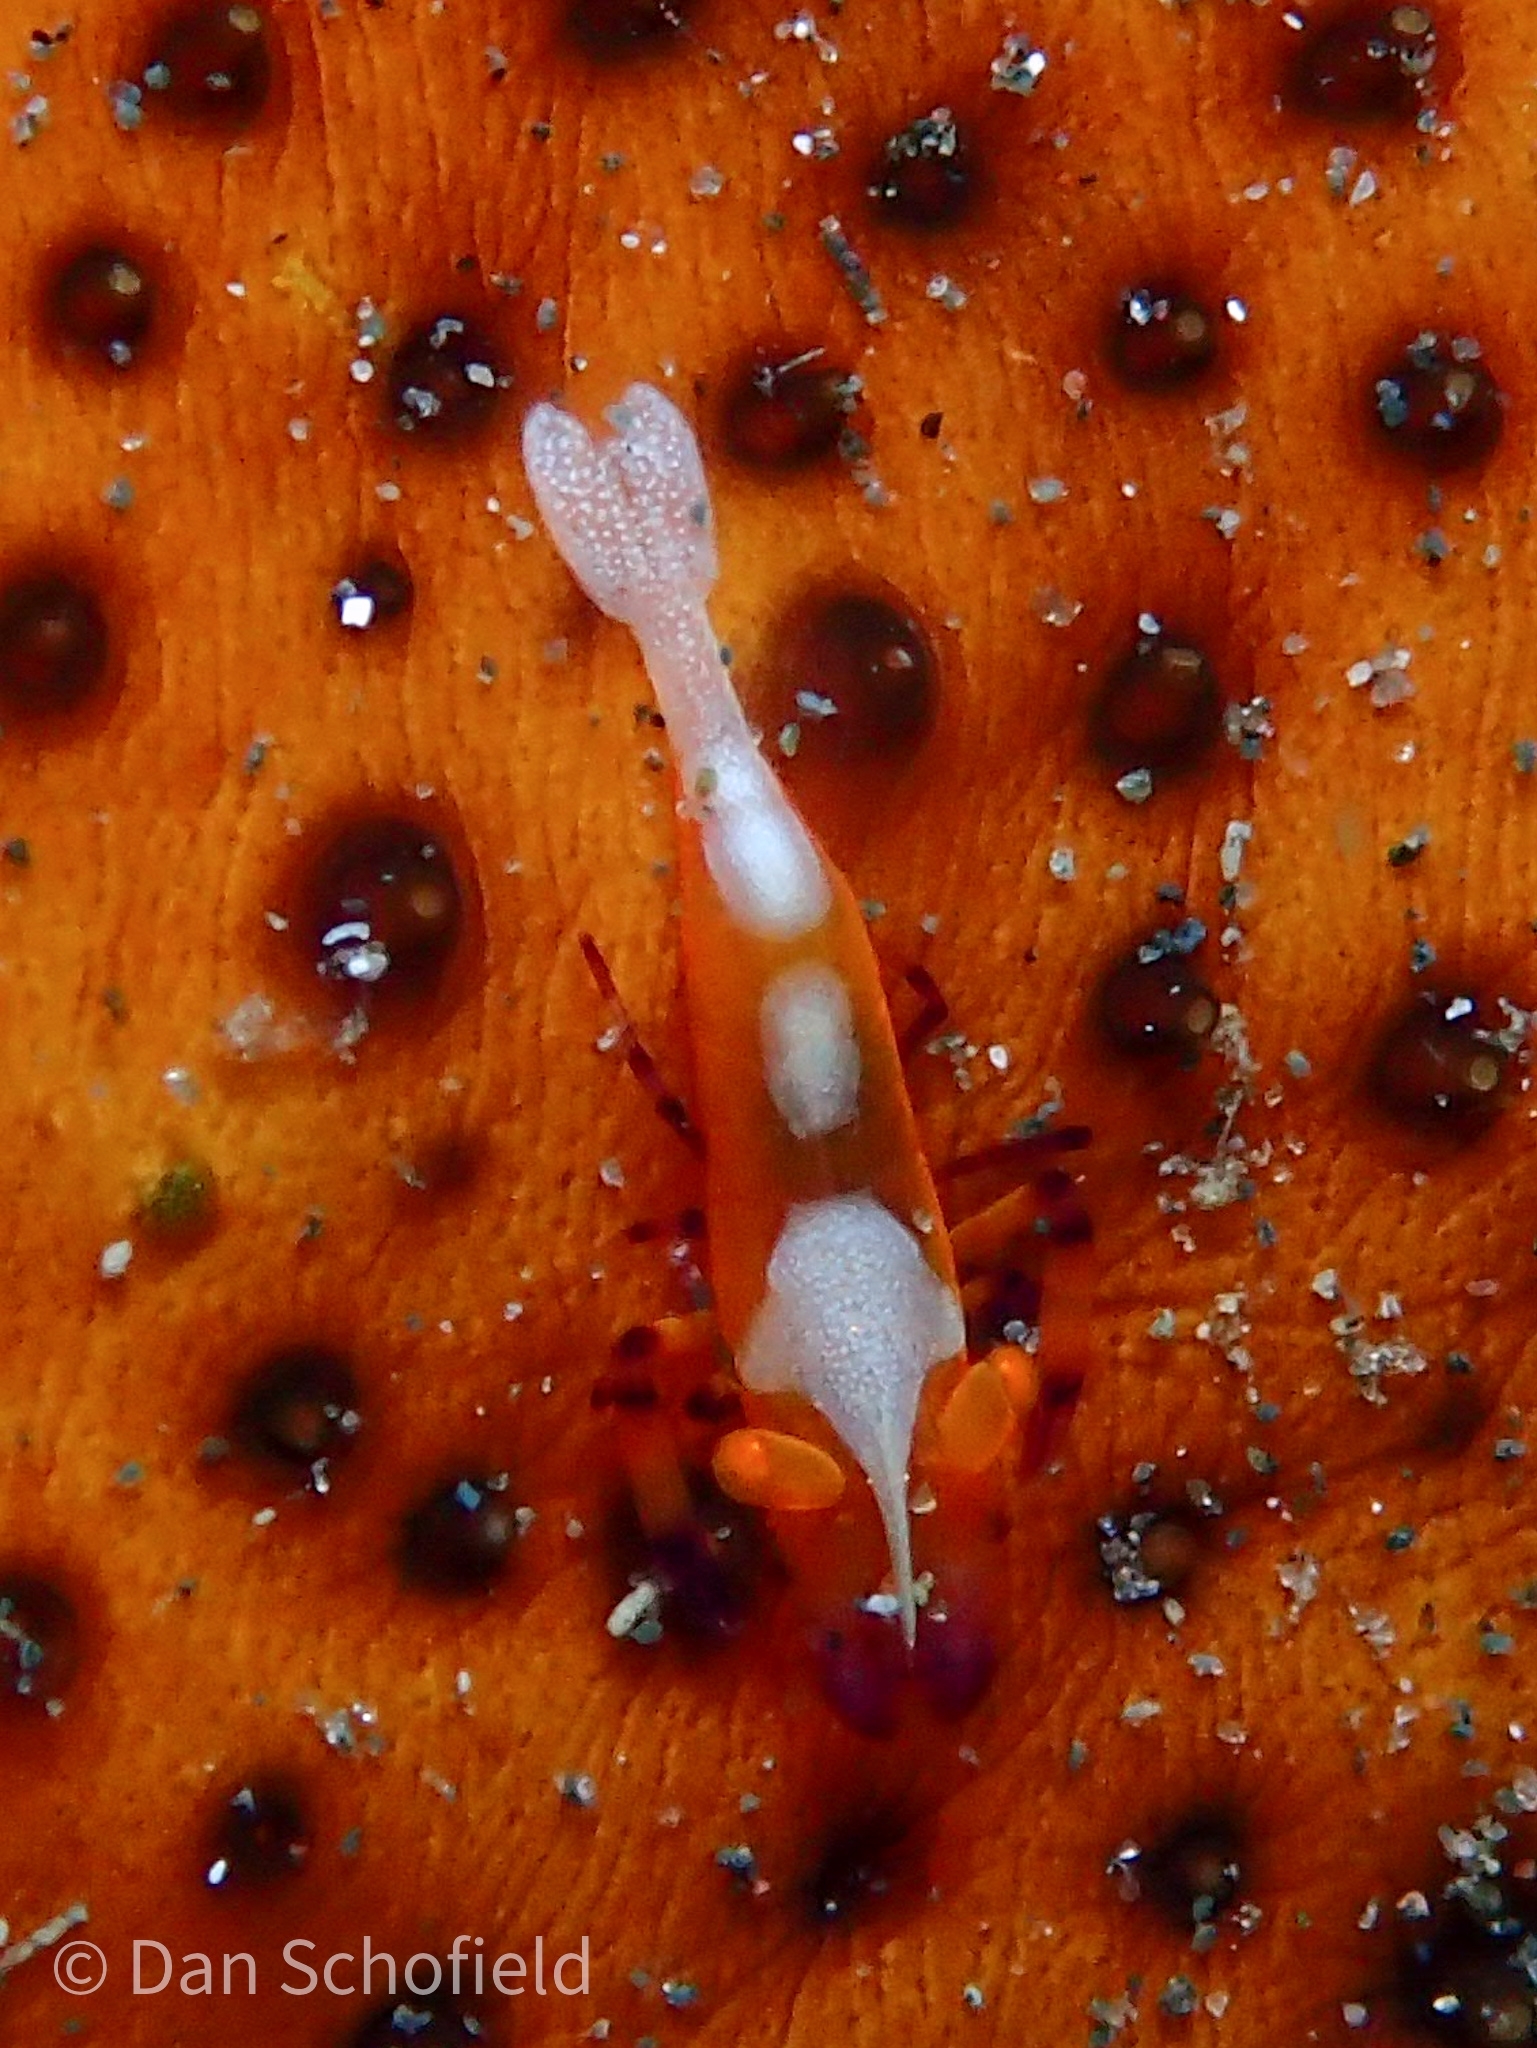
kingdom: Animalia
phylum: Arthropoda
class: Malacostraca
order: Decapoda
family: Palaemonidae
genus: Periclimenes
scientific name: Periclimenes rex
